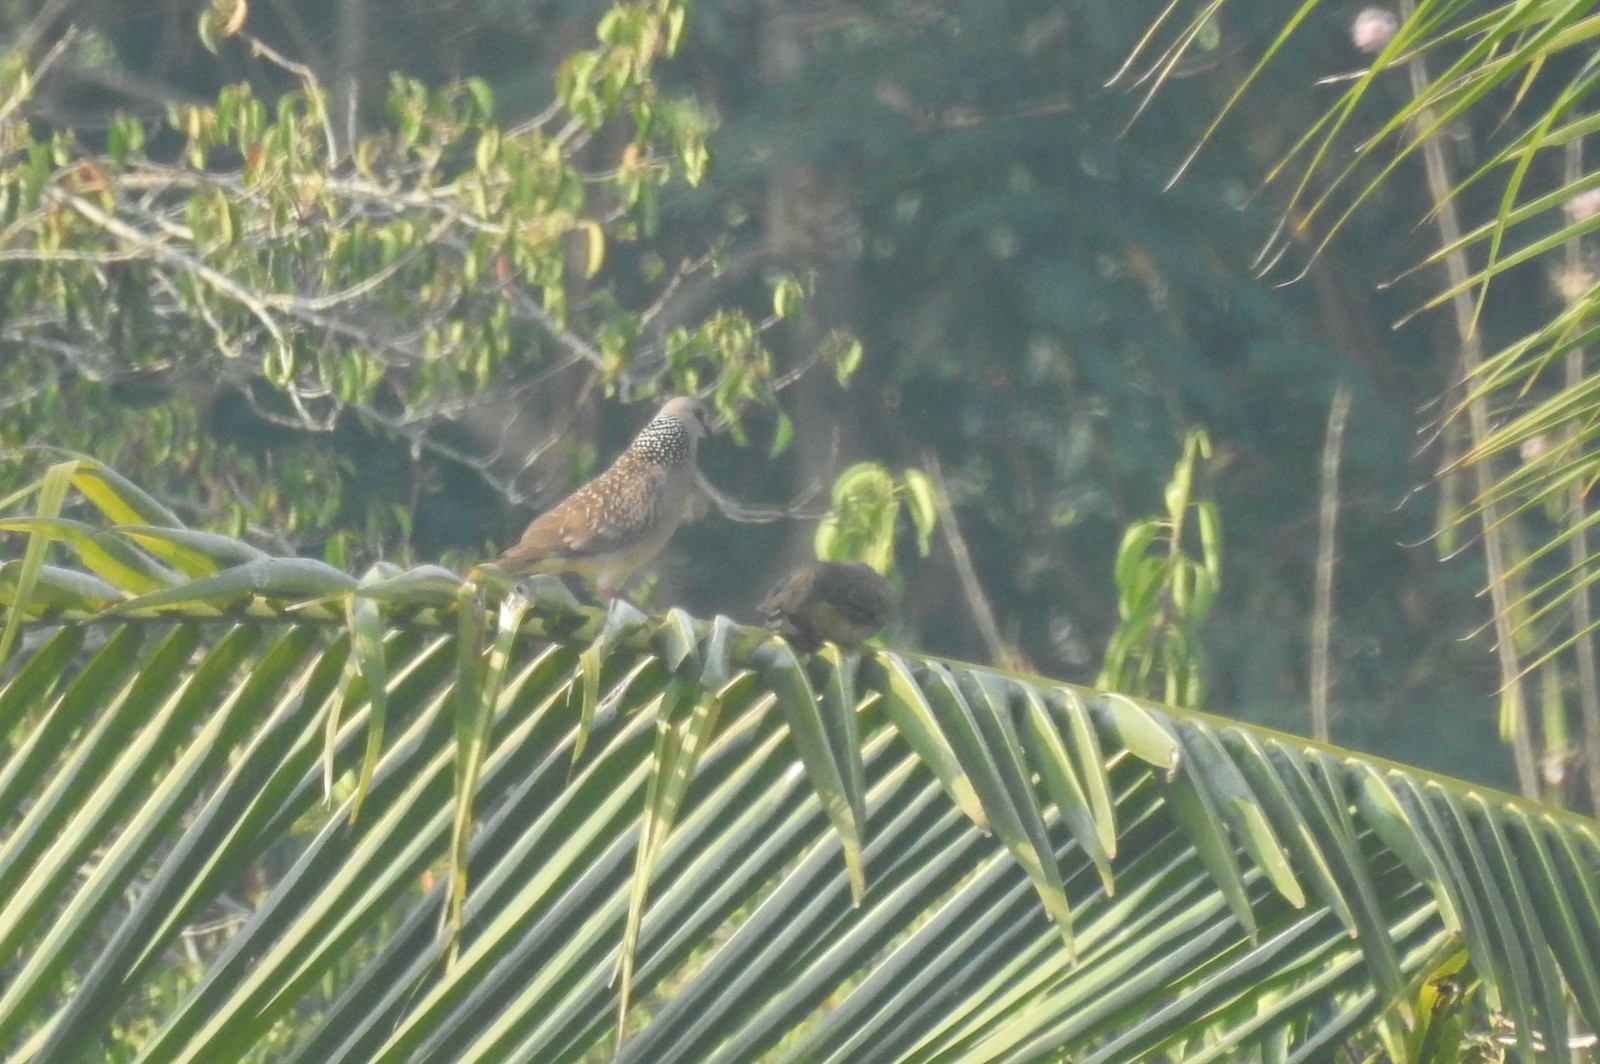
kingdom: Animalia
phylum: Chordata
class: Aves
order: Columbiformes
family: Columbidae
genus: Spilopelia
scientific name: Spilopelia chinensis
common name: Spotted dove
